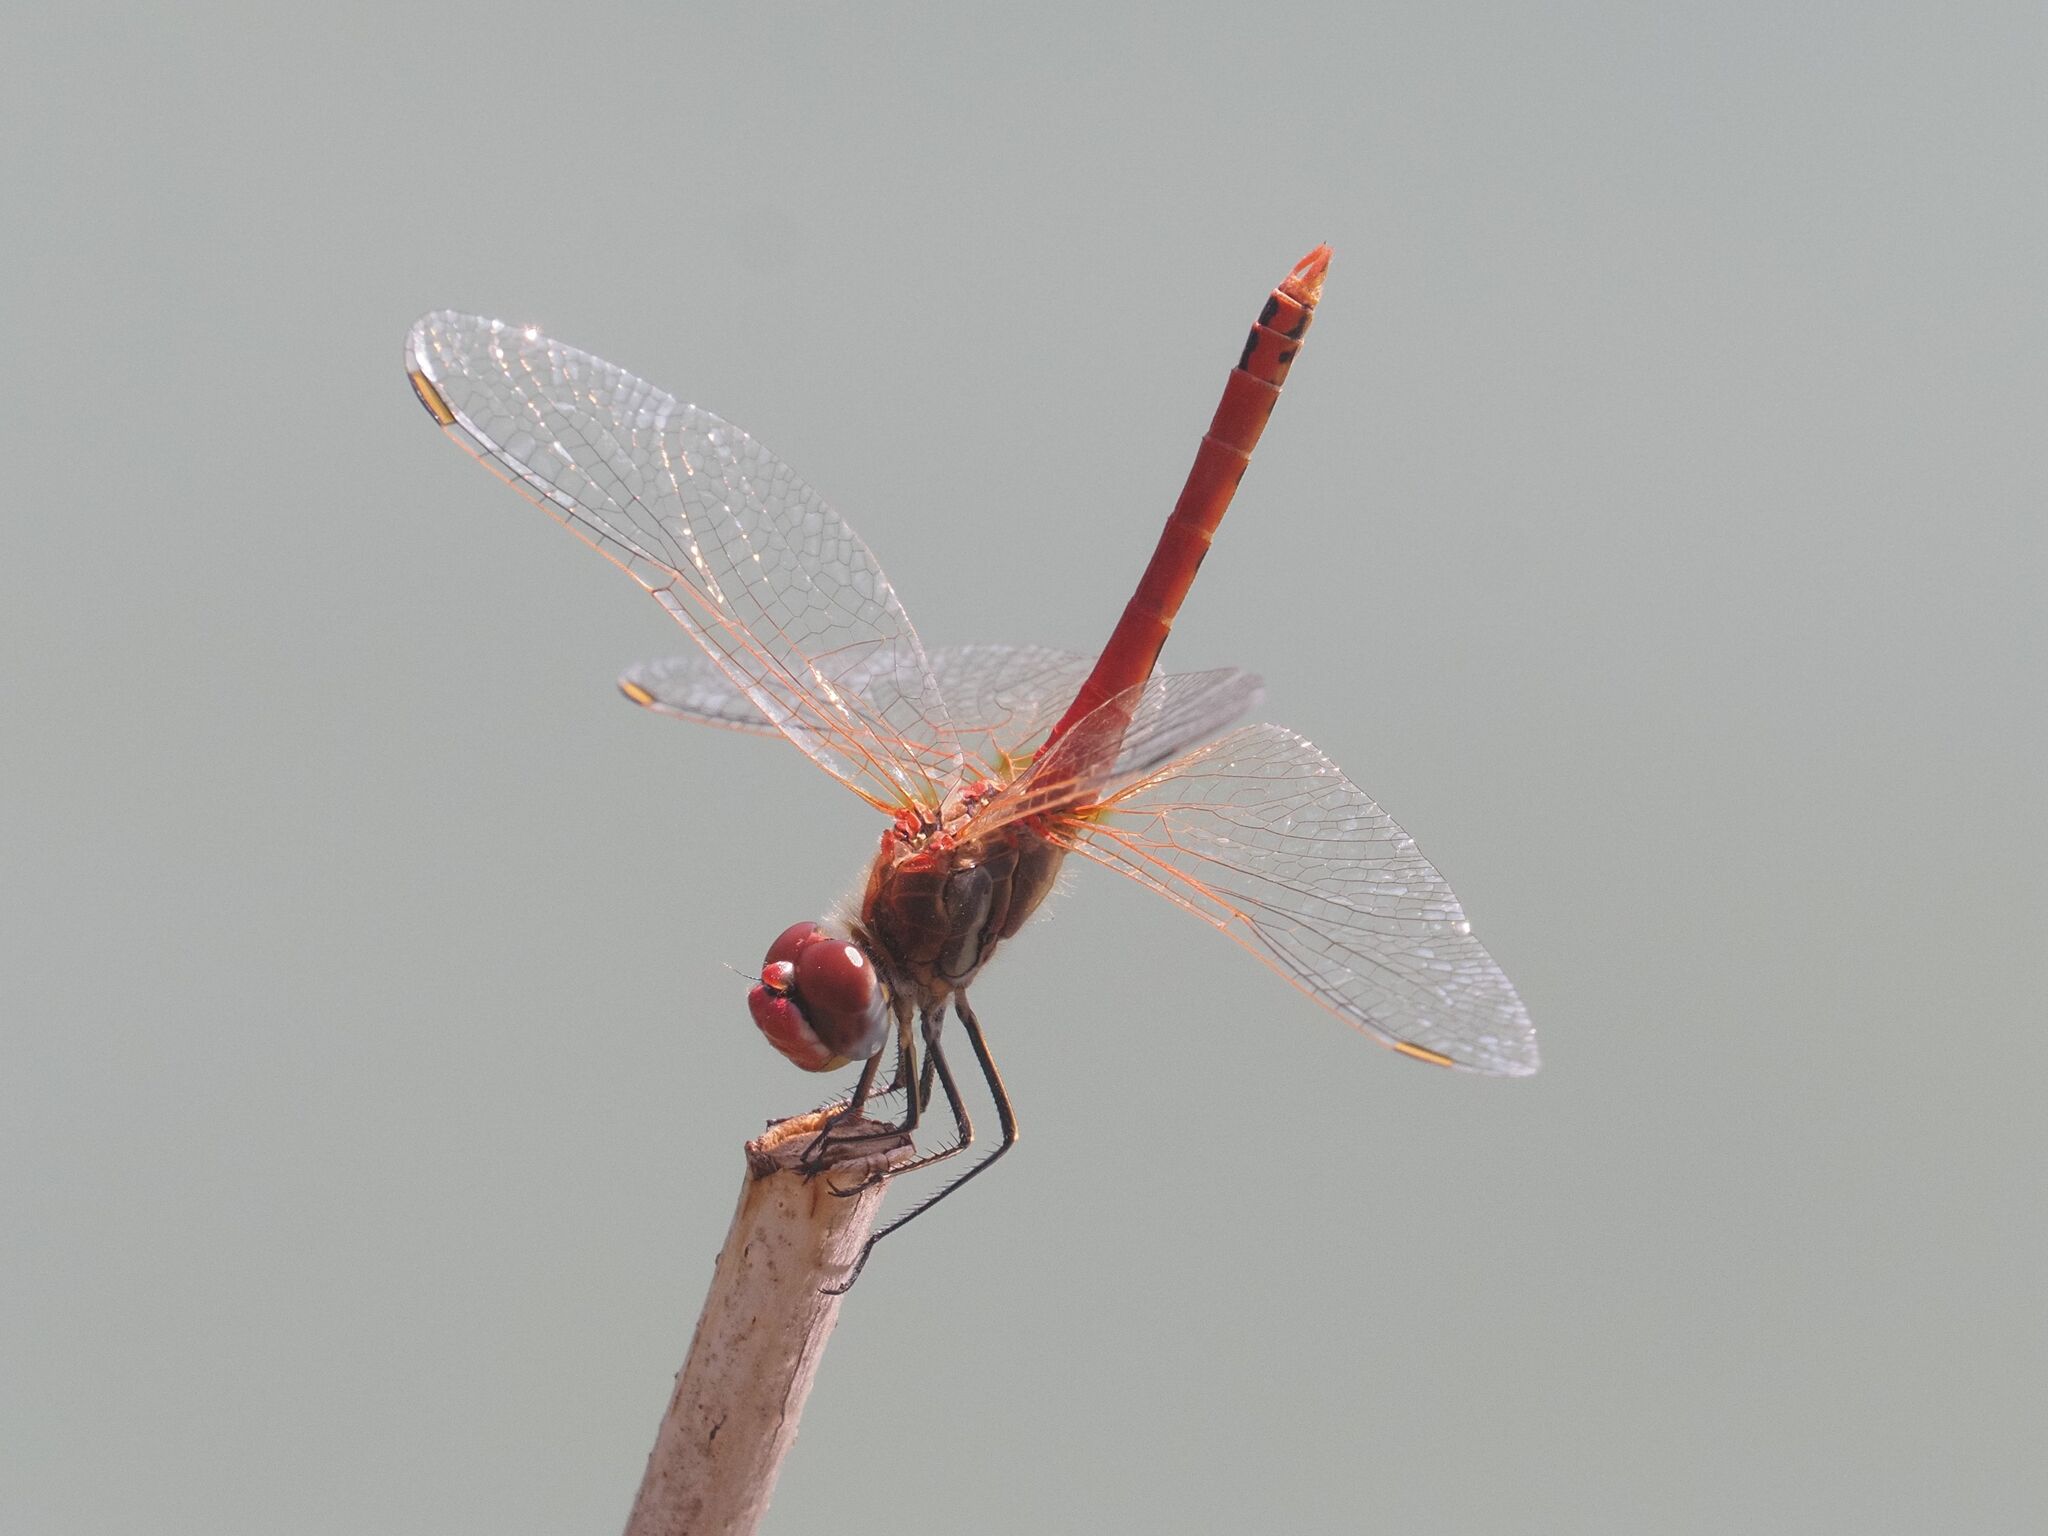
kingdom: Animalia
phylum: Arthropoda
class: Insecta
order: Odonata
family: Libellulidae
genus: Sympetrum
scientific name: Sympetrum fonscolombii
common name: Red-veined darter
